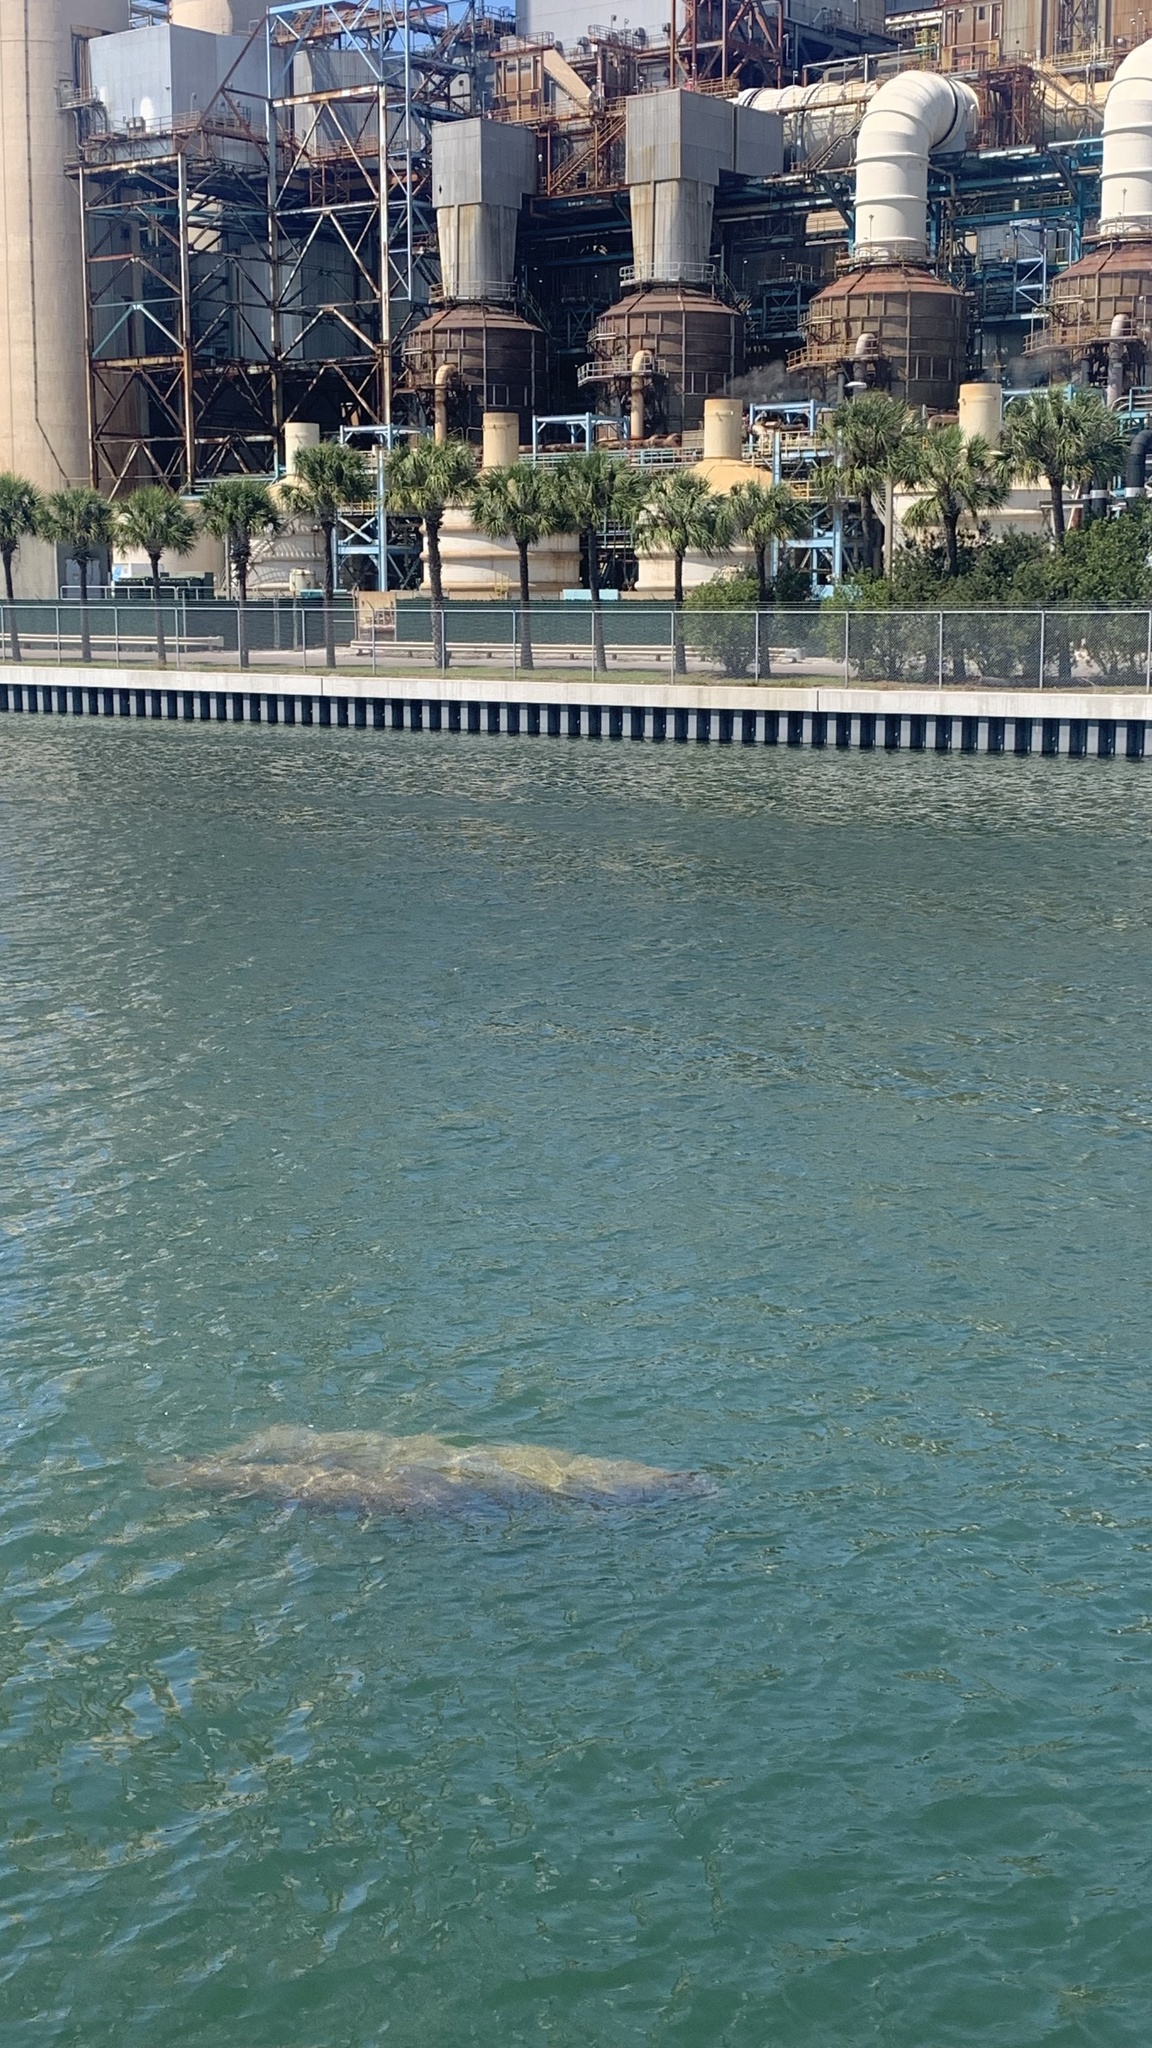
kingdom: Animalia
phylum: Chordata
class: Mammalia
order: Sirenia
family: Trichechidae
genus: Trichechus
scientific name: Trichechus manatus
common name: West indian manatee
